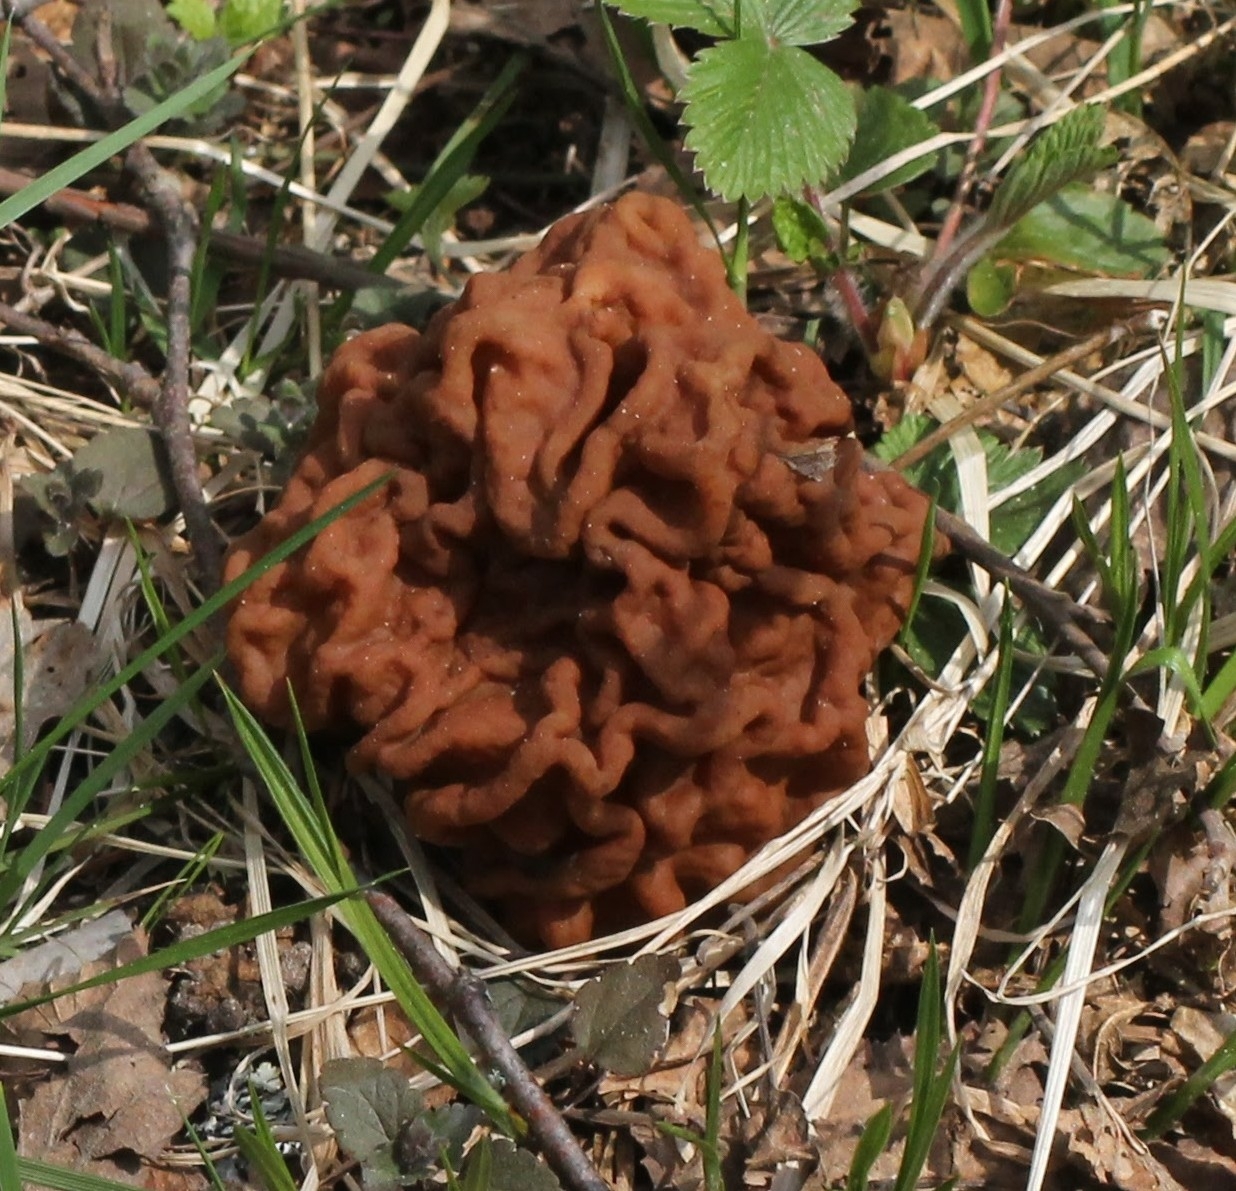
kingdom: Fungi
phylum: Ascomycota
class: Pezizomycetes
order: Pezizales
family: Discinaceae
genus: Gyromitra
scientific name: Gyromitra esculenta
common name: False morel
